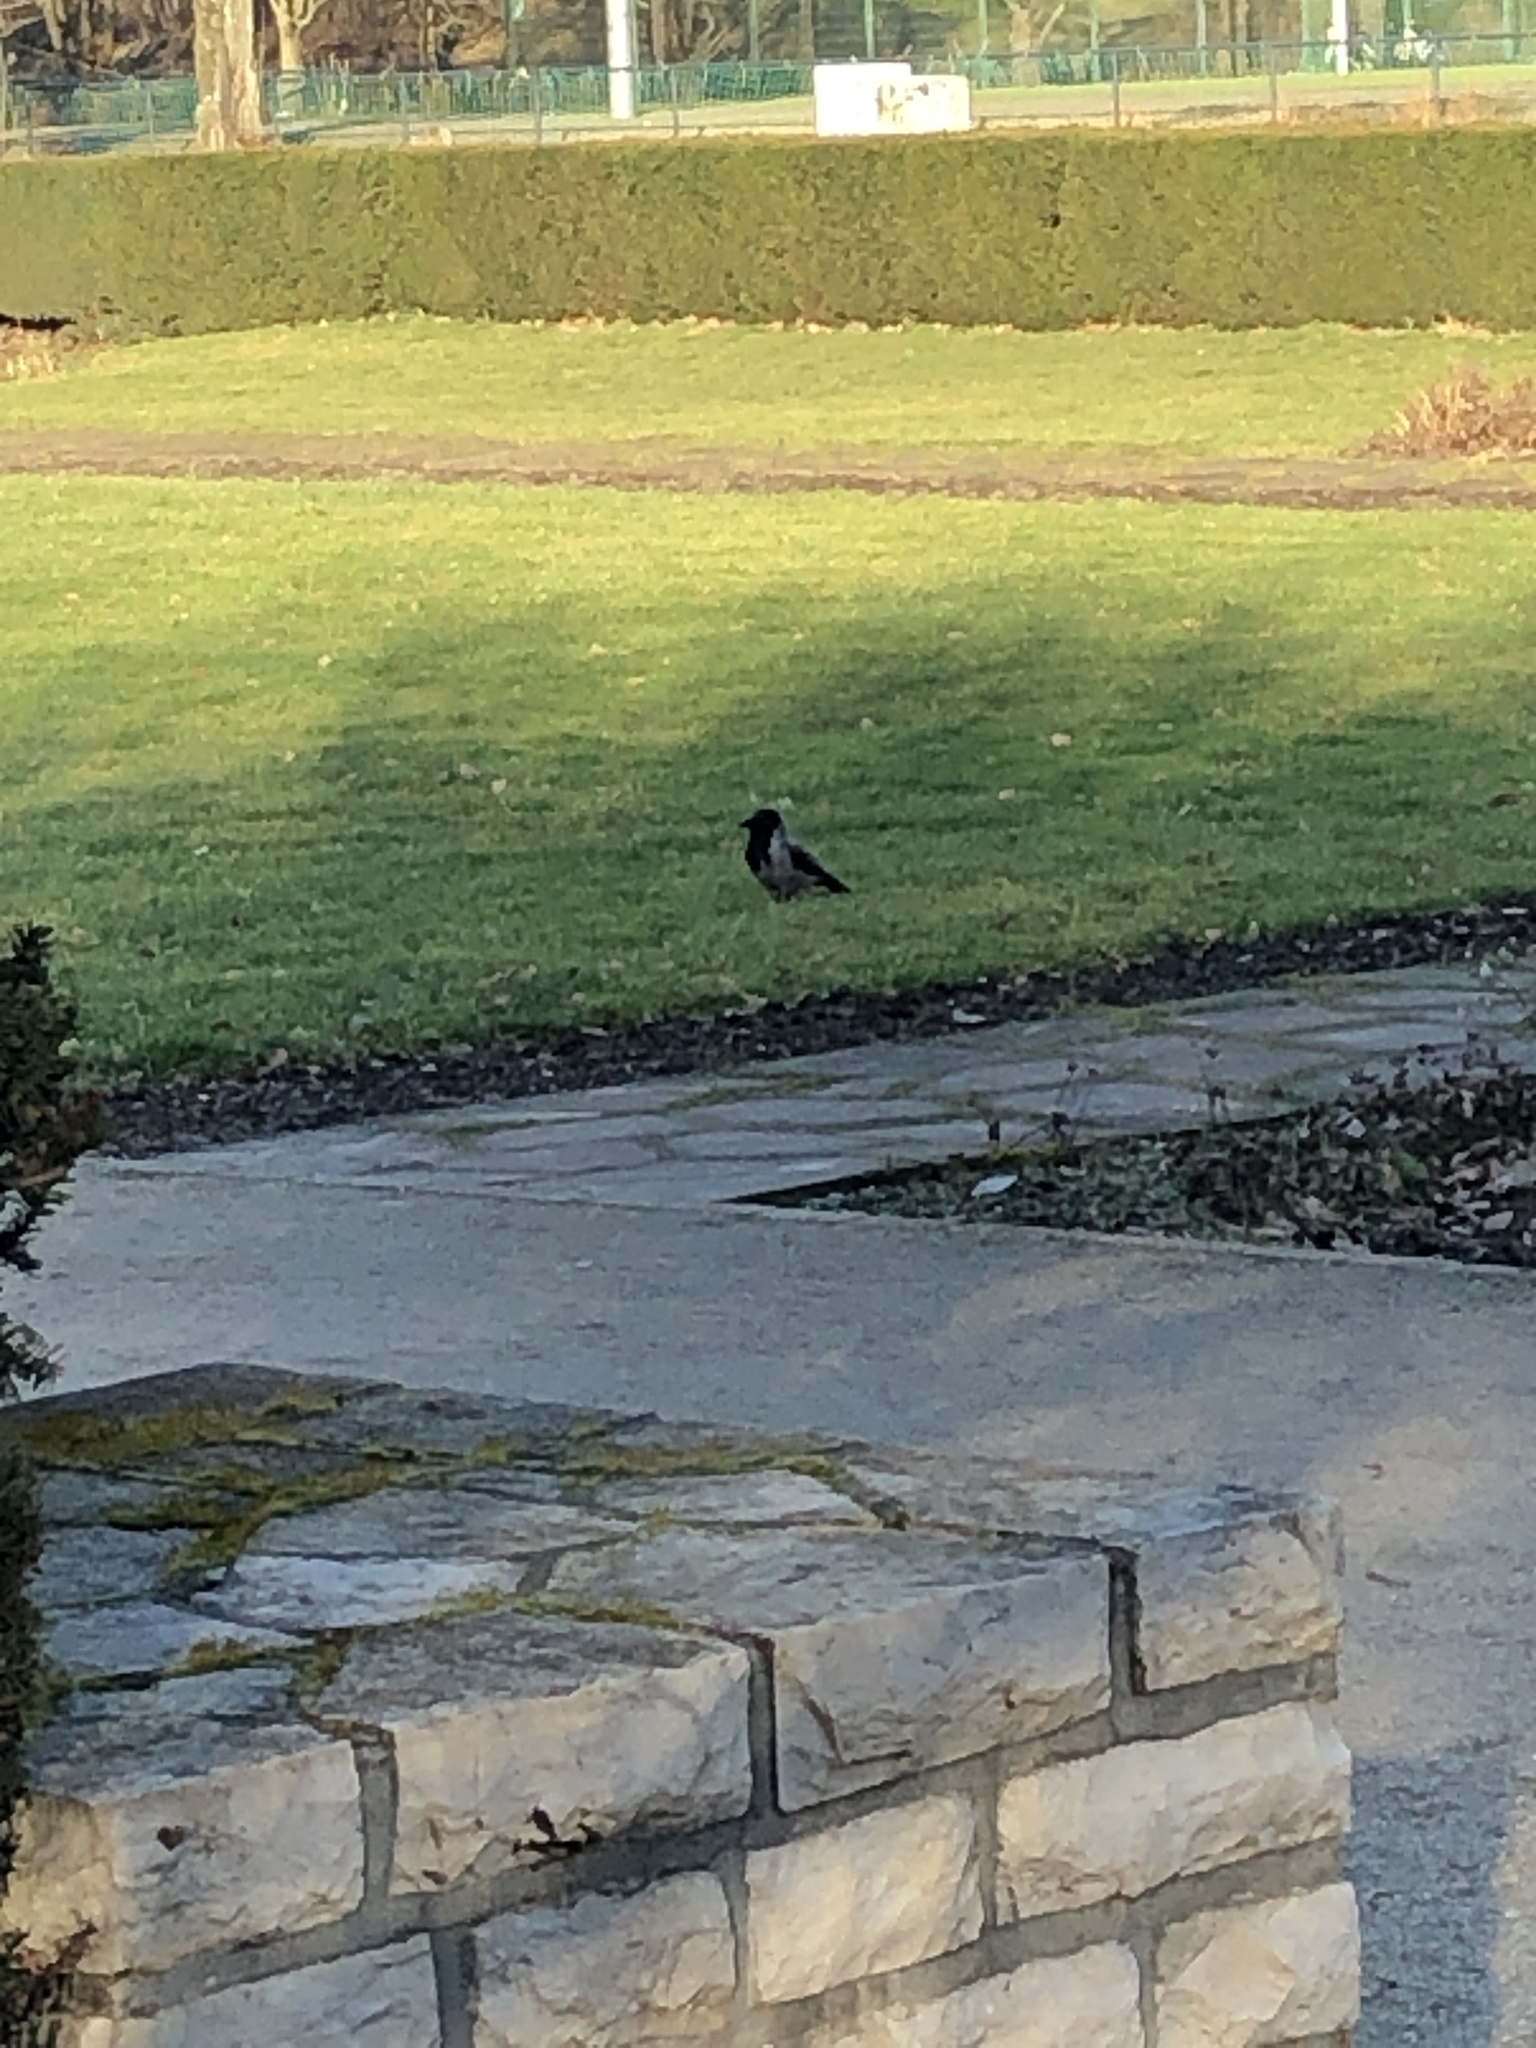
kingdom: Animalia
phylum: Chordata
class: Aves
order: Passeriformes
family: Corvidae
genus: Corvus
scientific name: Corvus cornix
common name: Hooded crow
